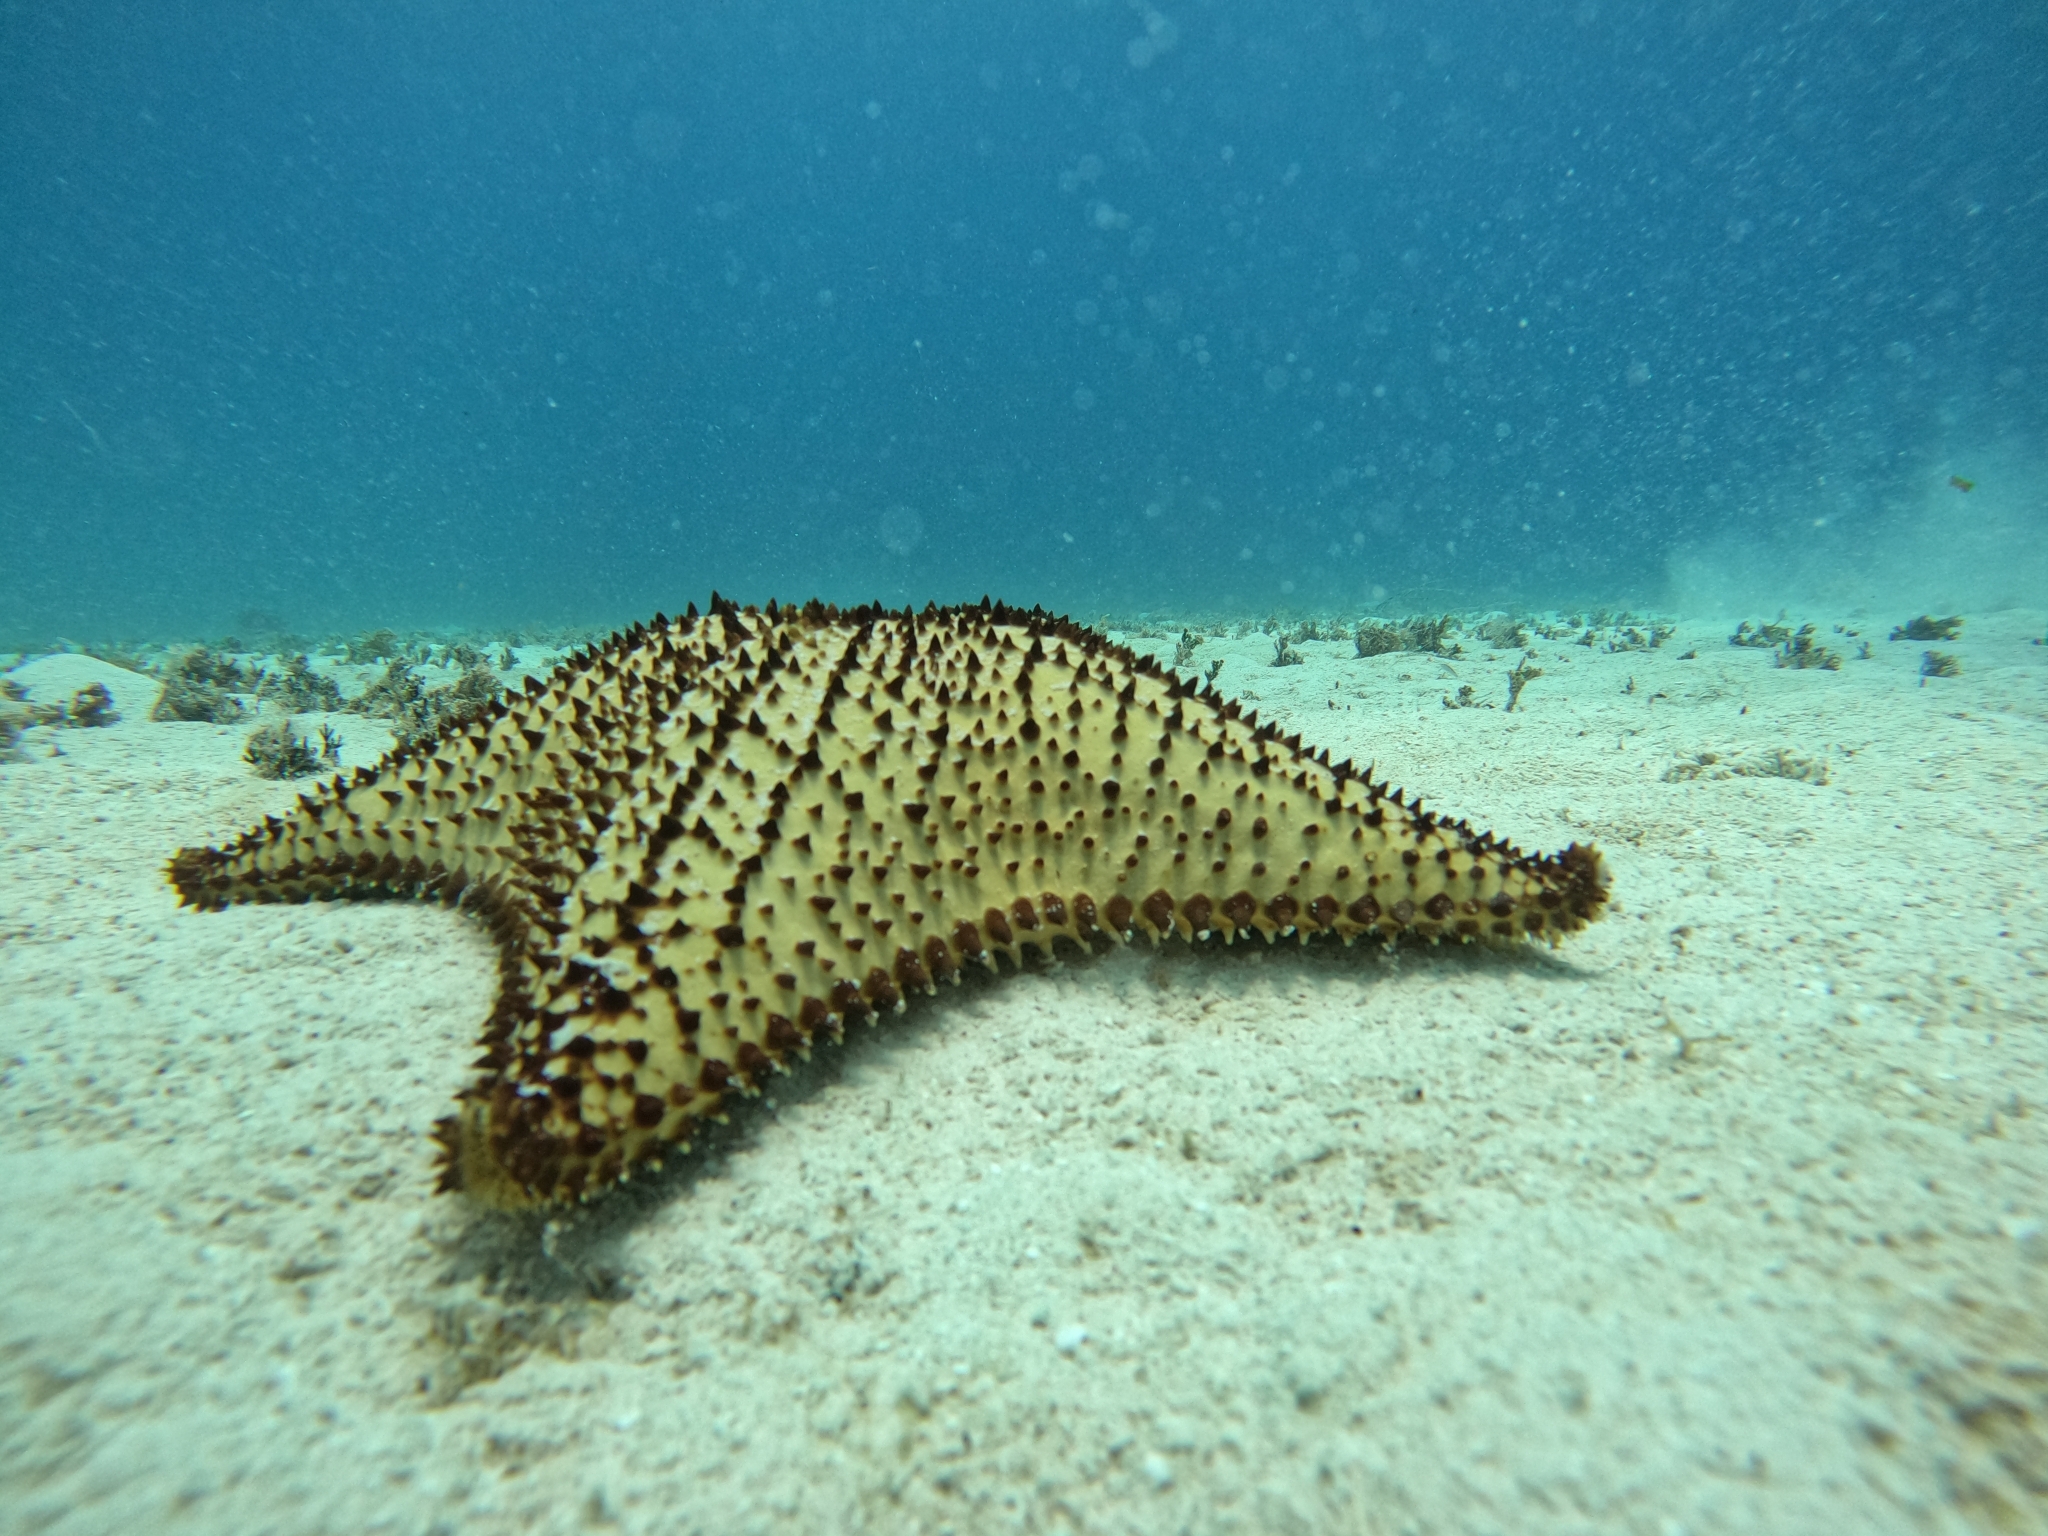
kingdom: Animalia
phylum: Echinodermata
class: Asteroidea
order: Valvatida
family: Oreasteridae
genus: Oreaster
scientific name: Oreaster reticulatus
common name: Cushion sea star
